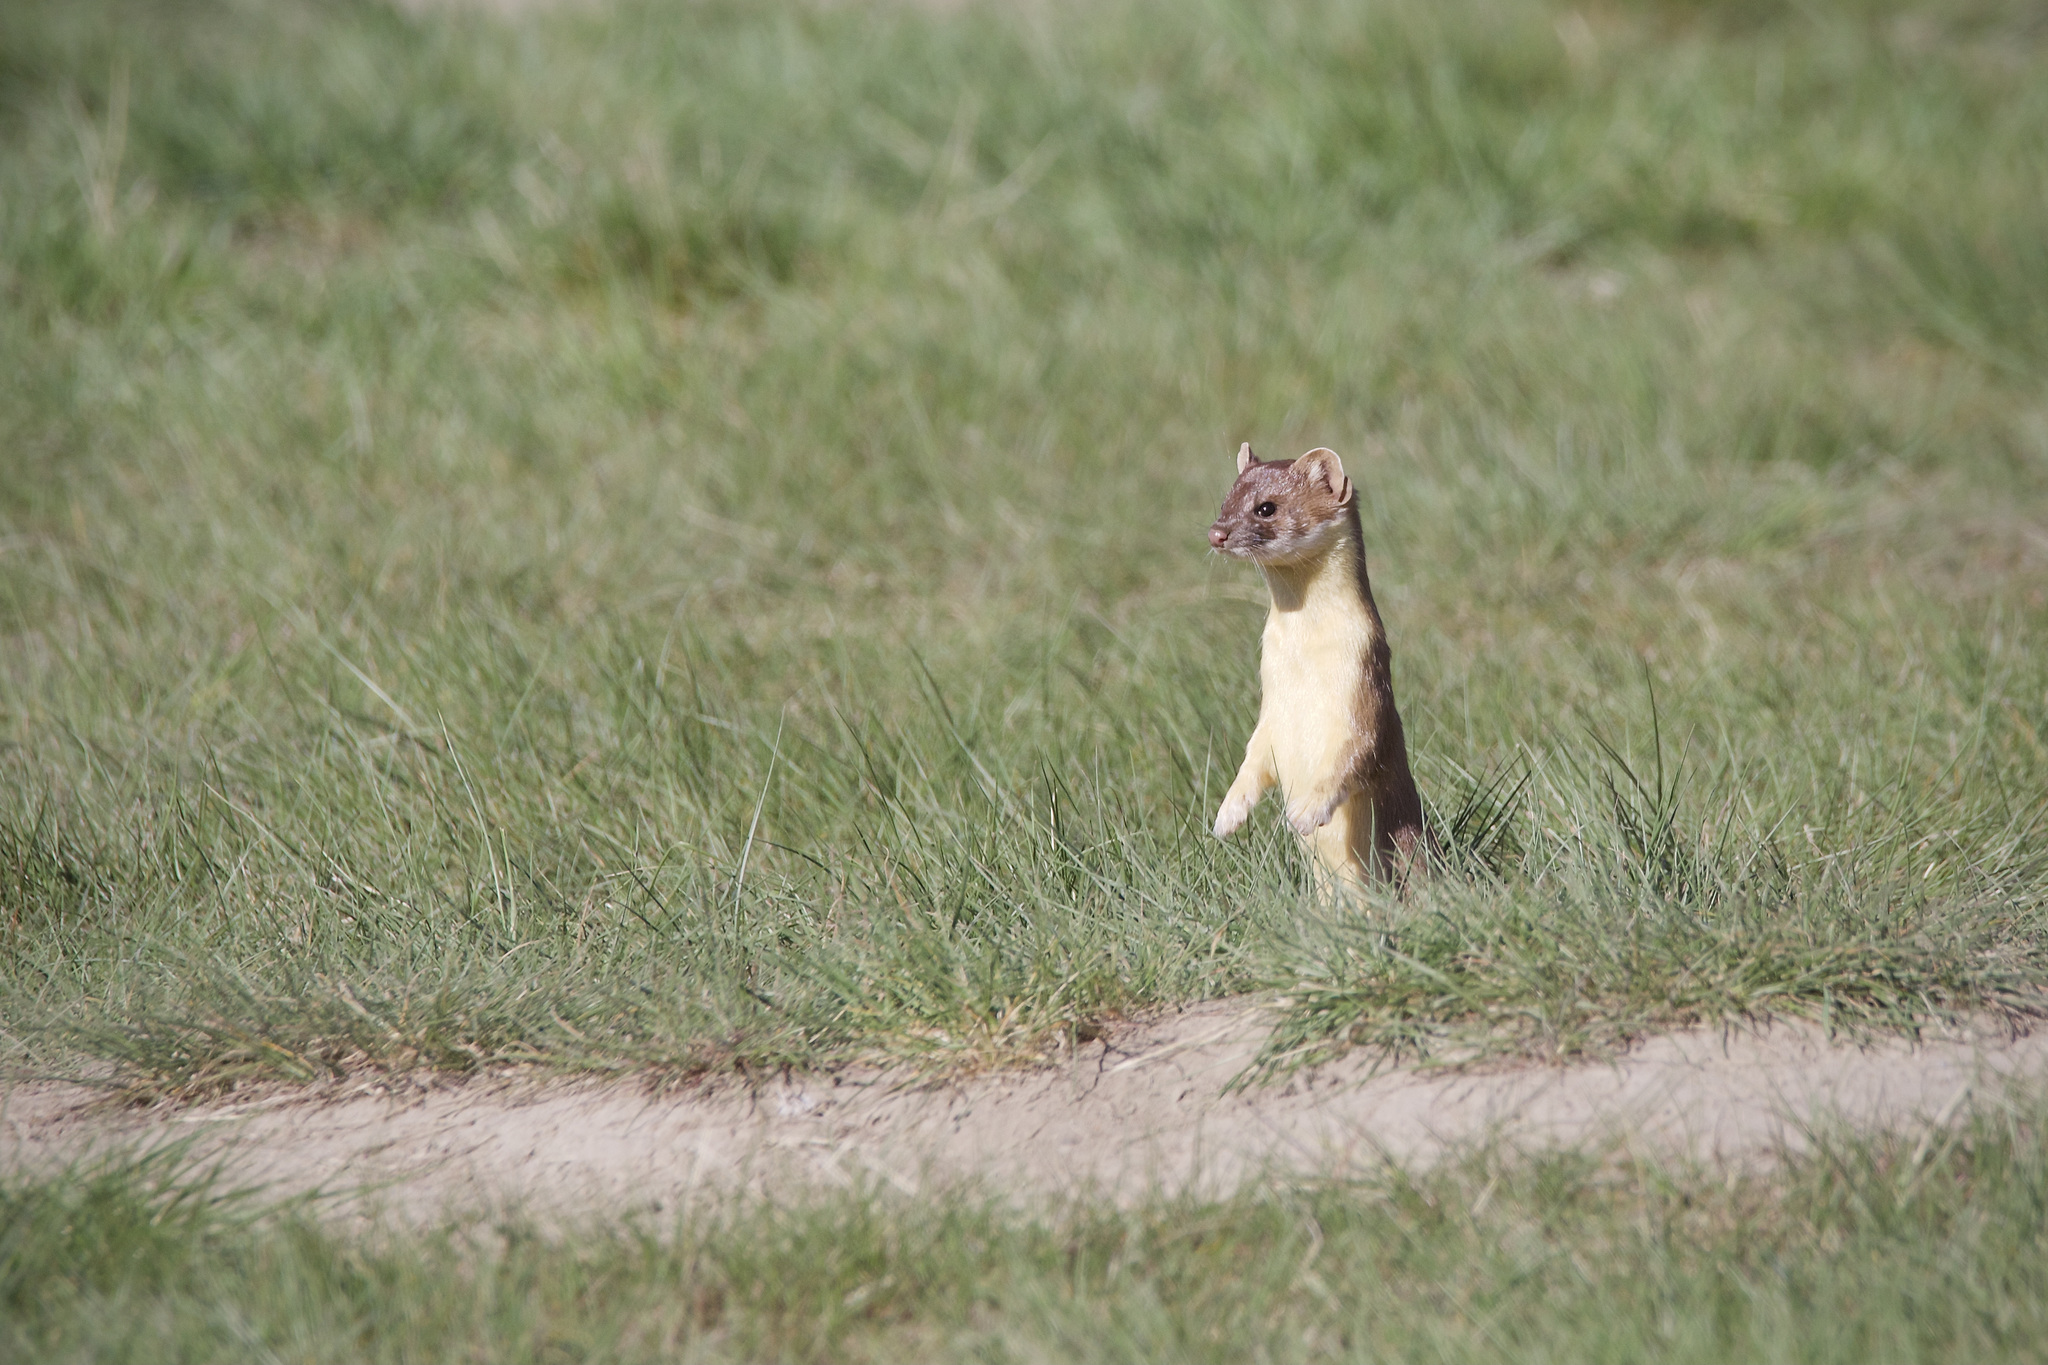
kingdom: Animalia
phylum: Chordata
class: Mammalia
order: Carnivora
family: Mustelidae
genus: Mustela
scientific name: Mustela
